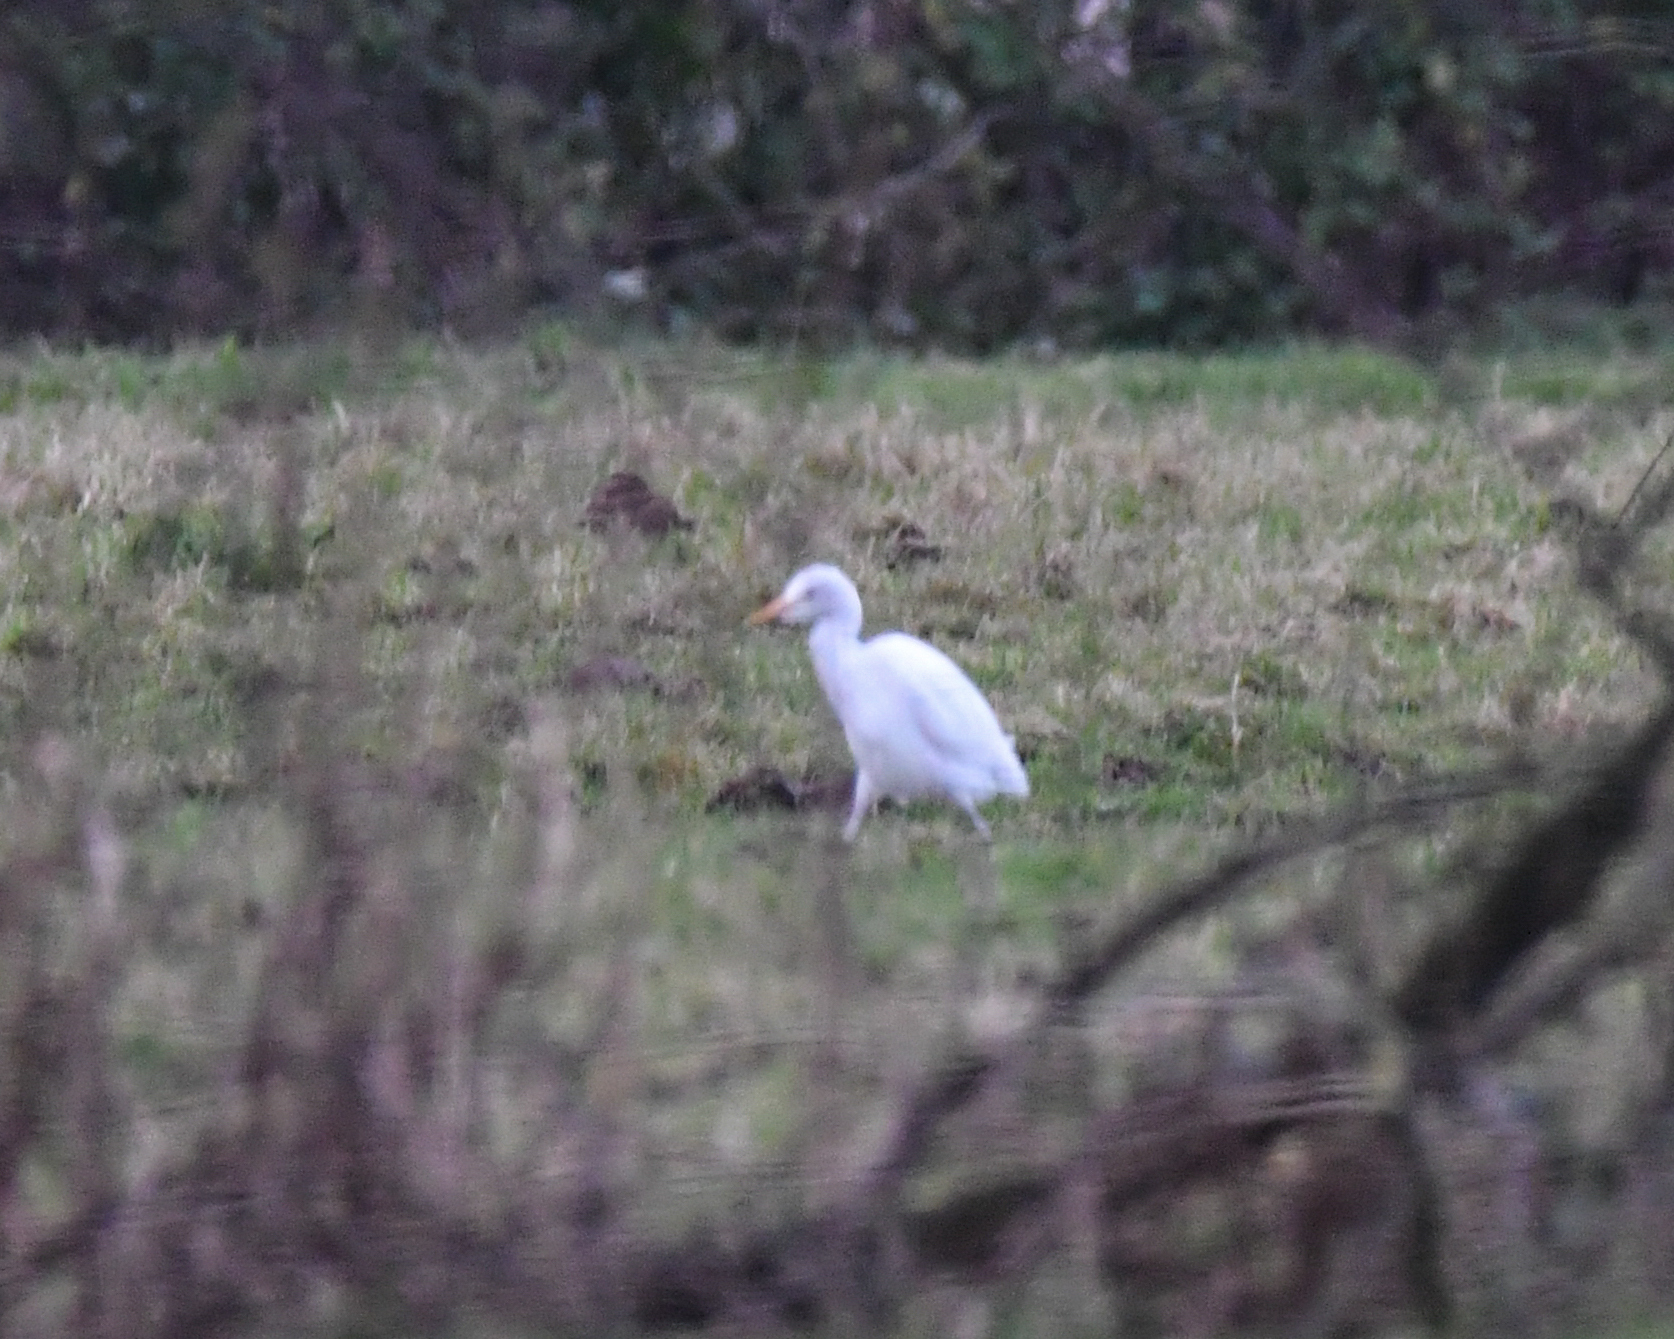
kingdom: Animalia
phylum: Chordata
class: Aves
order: Pelecaniformes
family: Ardeidae
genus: Bubulcus
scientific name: Bubulcus ibis
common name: Cattle egret
